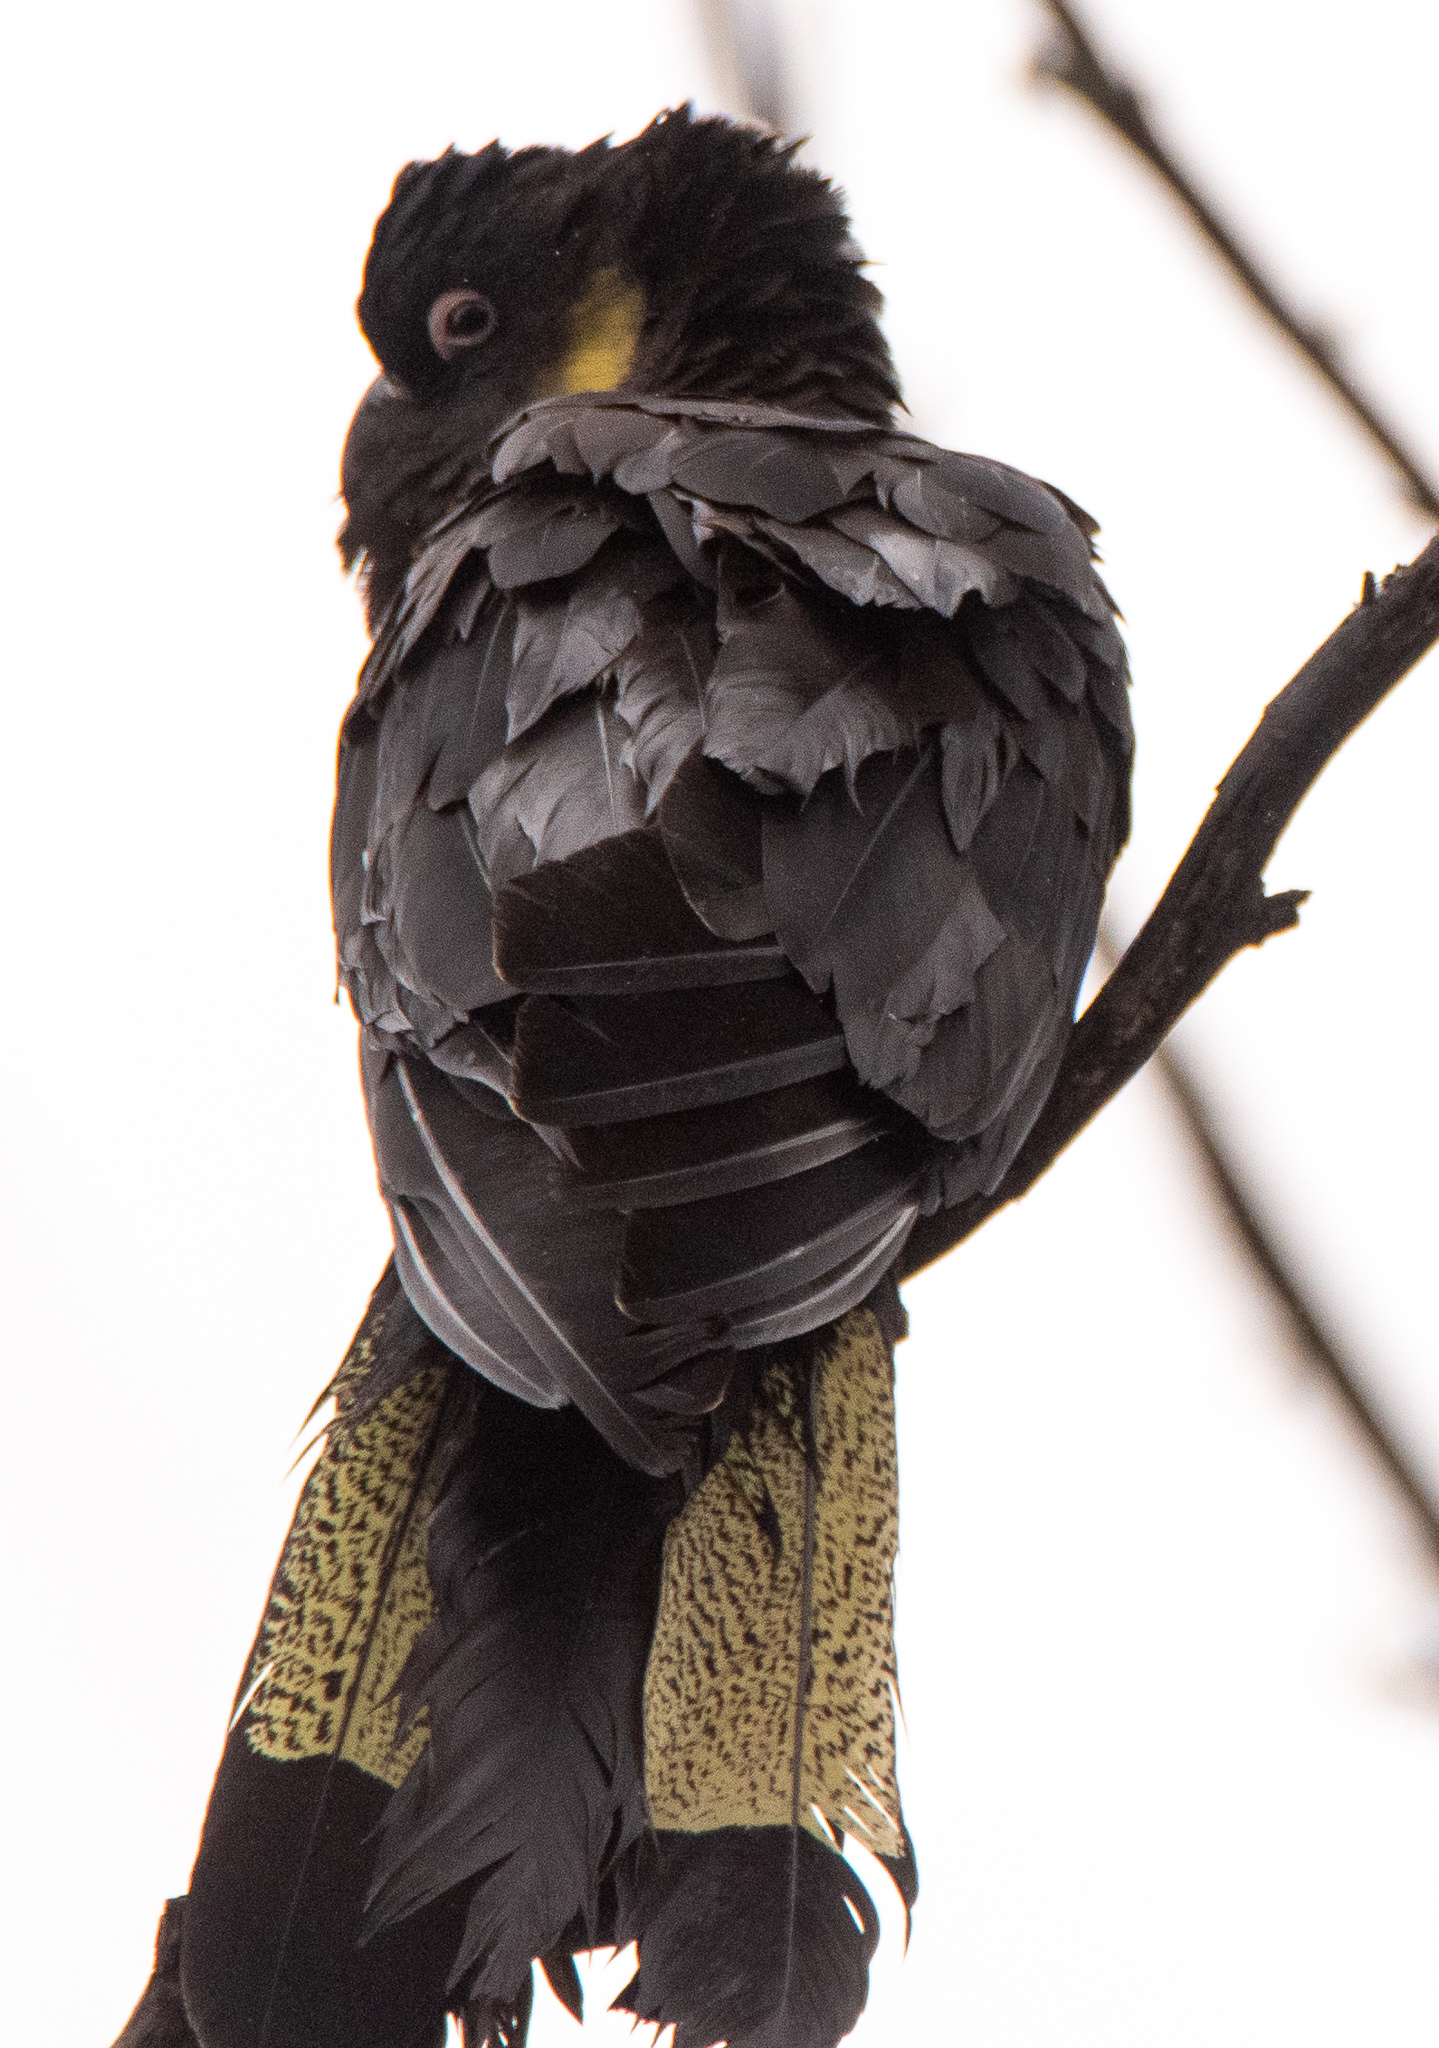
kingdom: Animalia
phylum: Chordata
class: Aves
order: Psittaciformes
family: Cacatuidae
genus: Zanda
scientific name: Zanda funerea
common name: Yellow-tailed black-cockatoo
